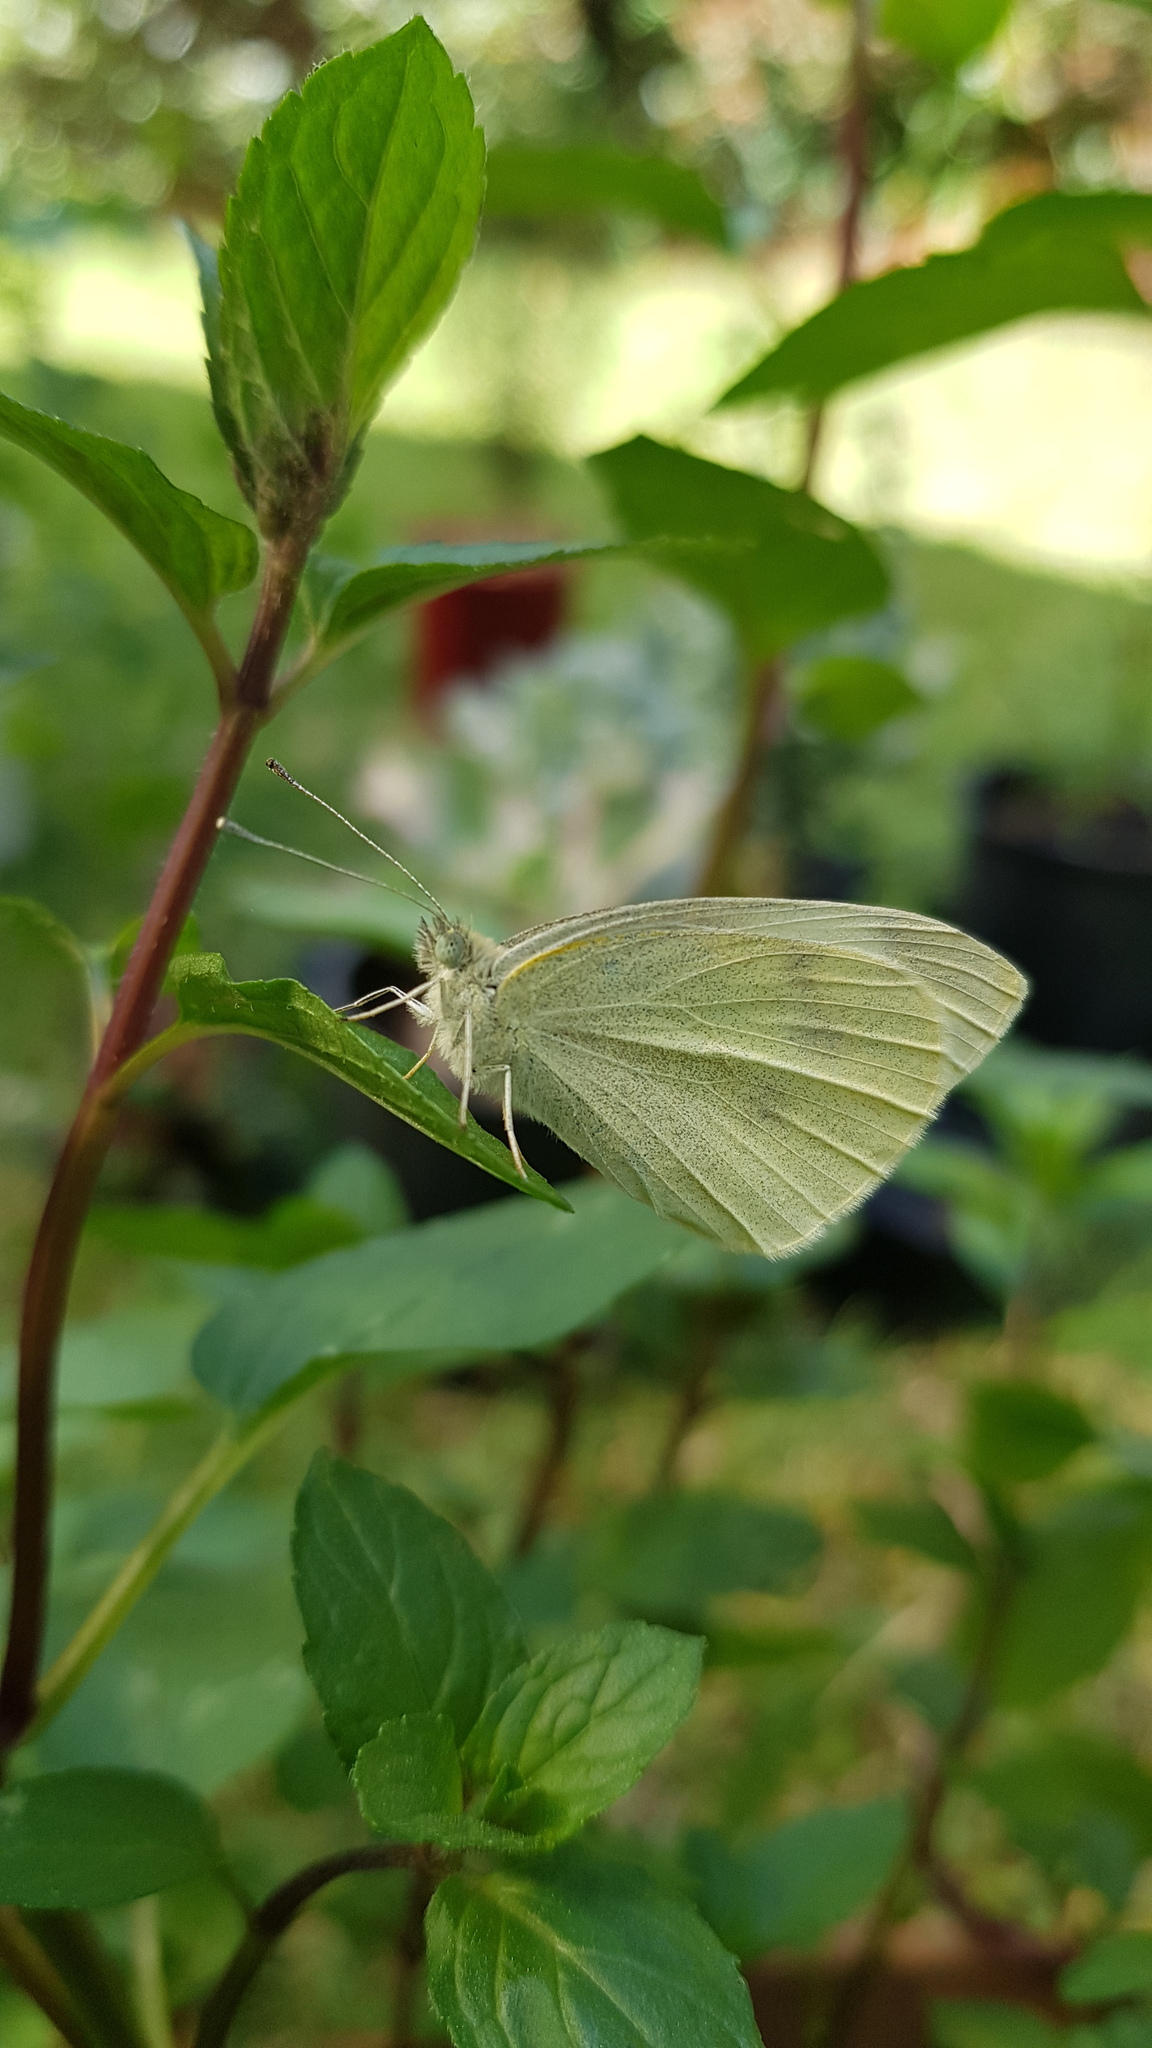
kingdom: Animalia
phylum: Arthropoda
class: Insecta
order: Lepidoptera
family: Pieridae
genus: Pieris
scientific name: Pieris rapae
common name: Small white
